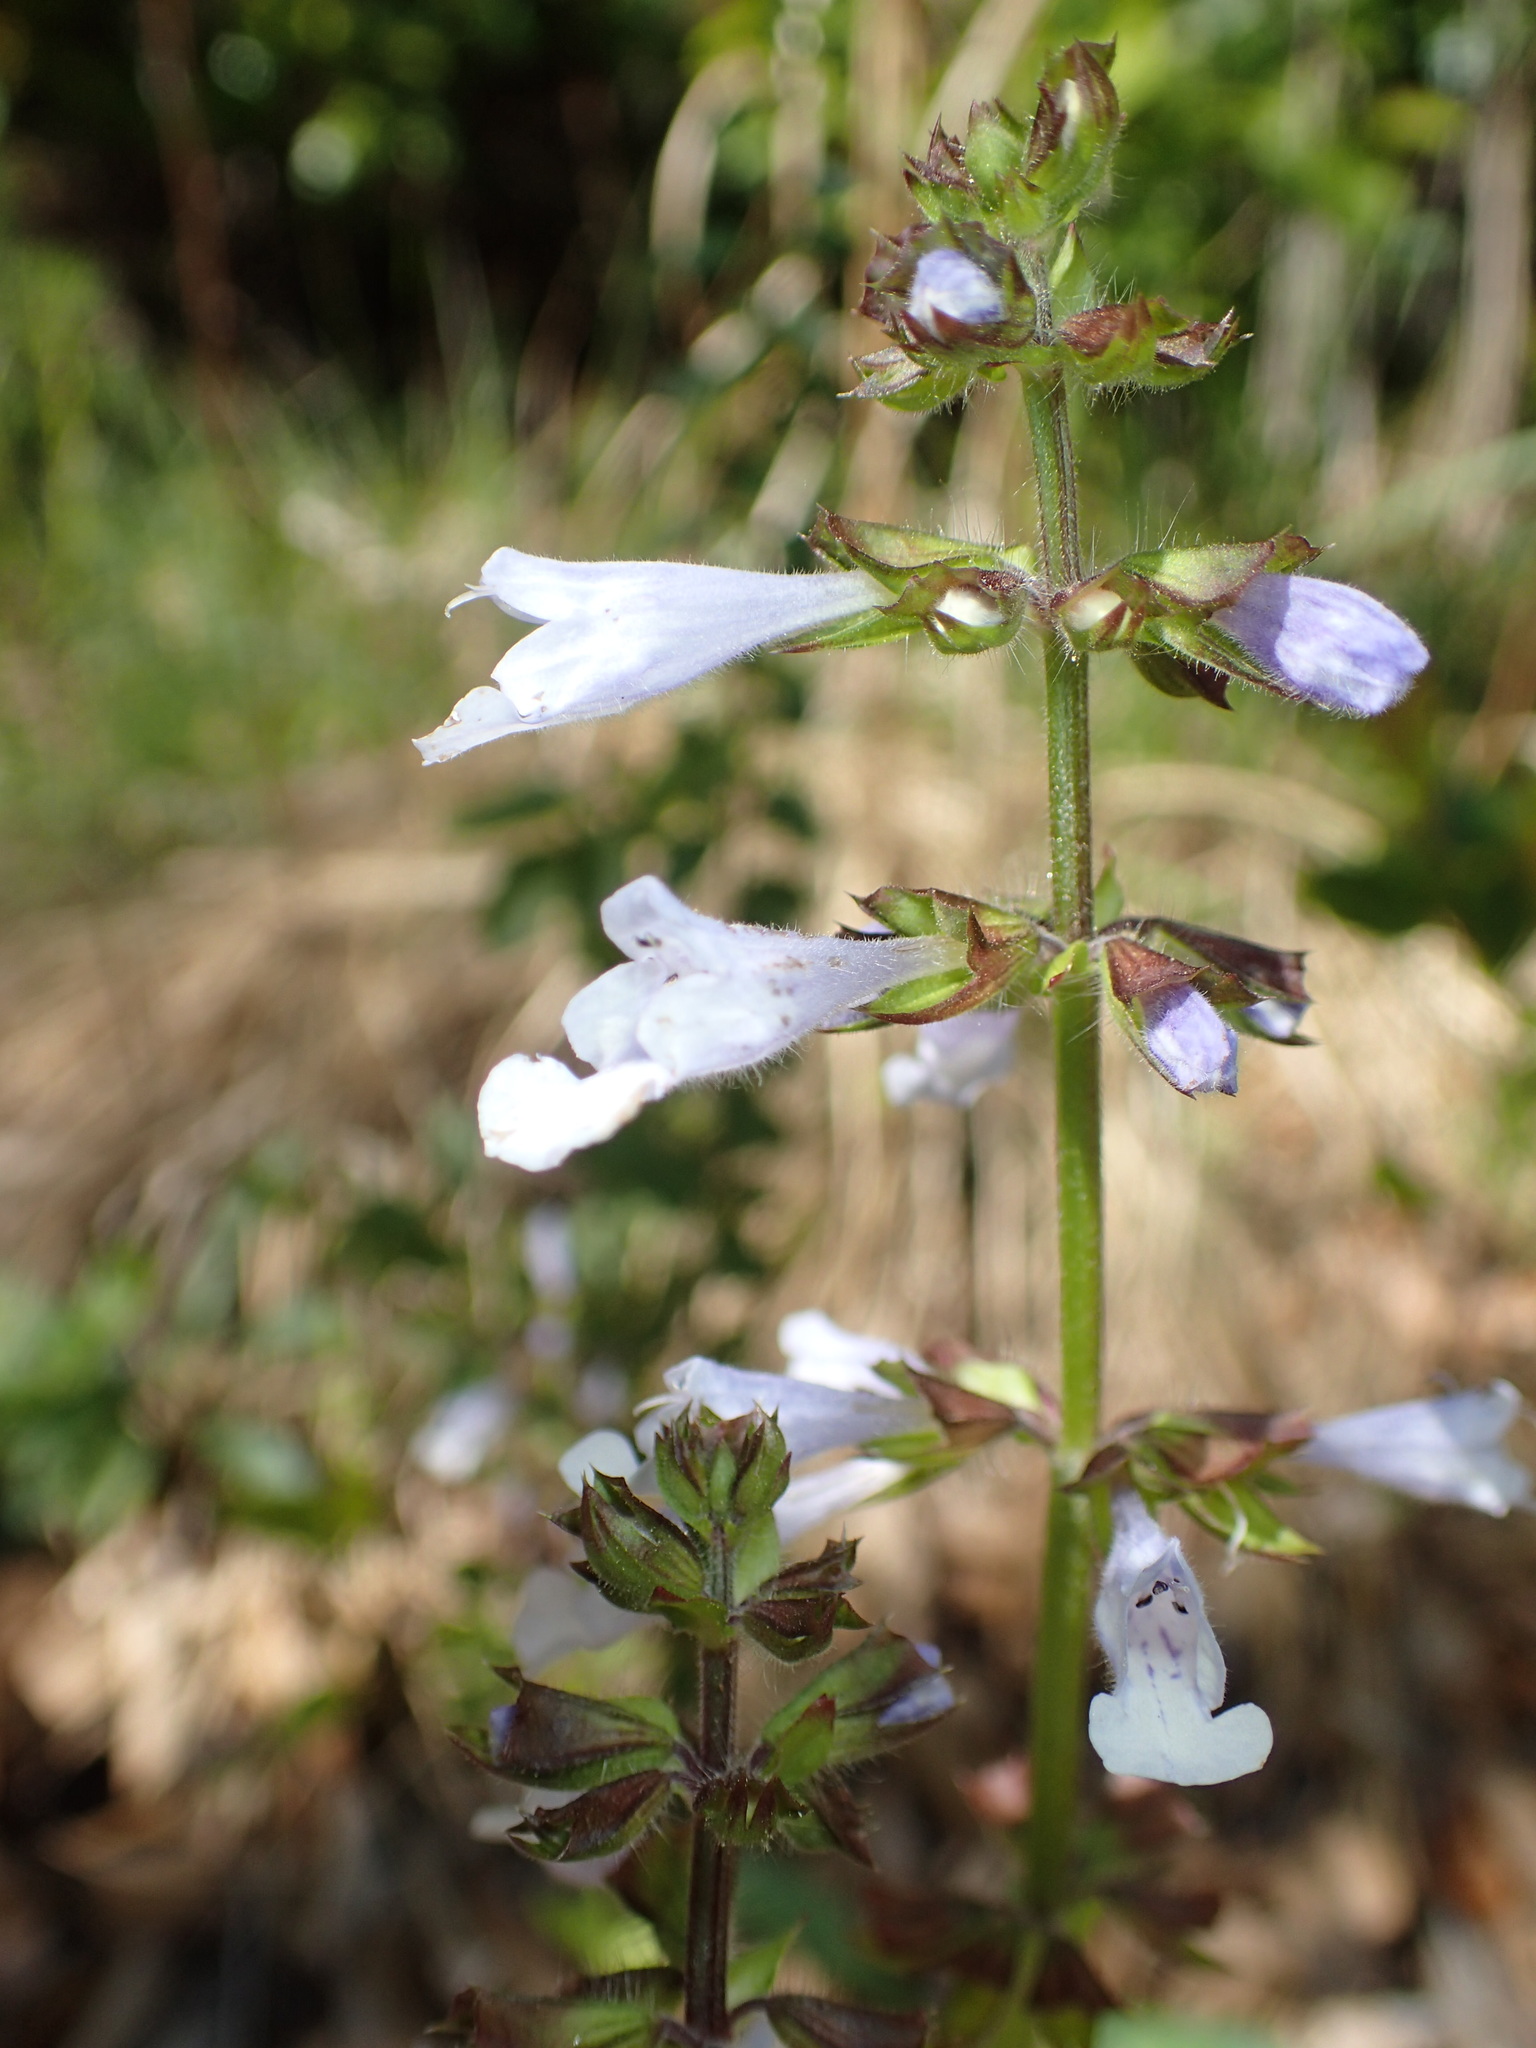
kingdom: Plantae
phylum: Tracheophyta
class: Magnoliopsida
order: Lamiales
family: Lamiaceae
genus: Salvia
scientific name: Salvia lyrata
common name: Cancerweed
